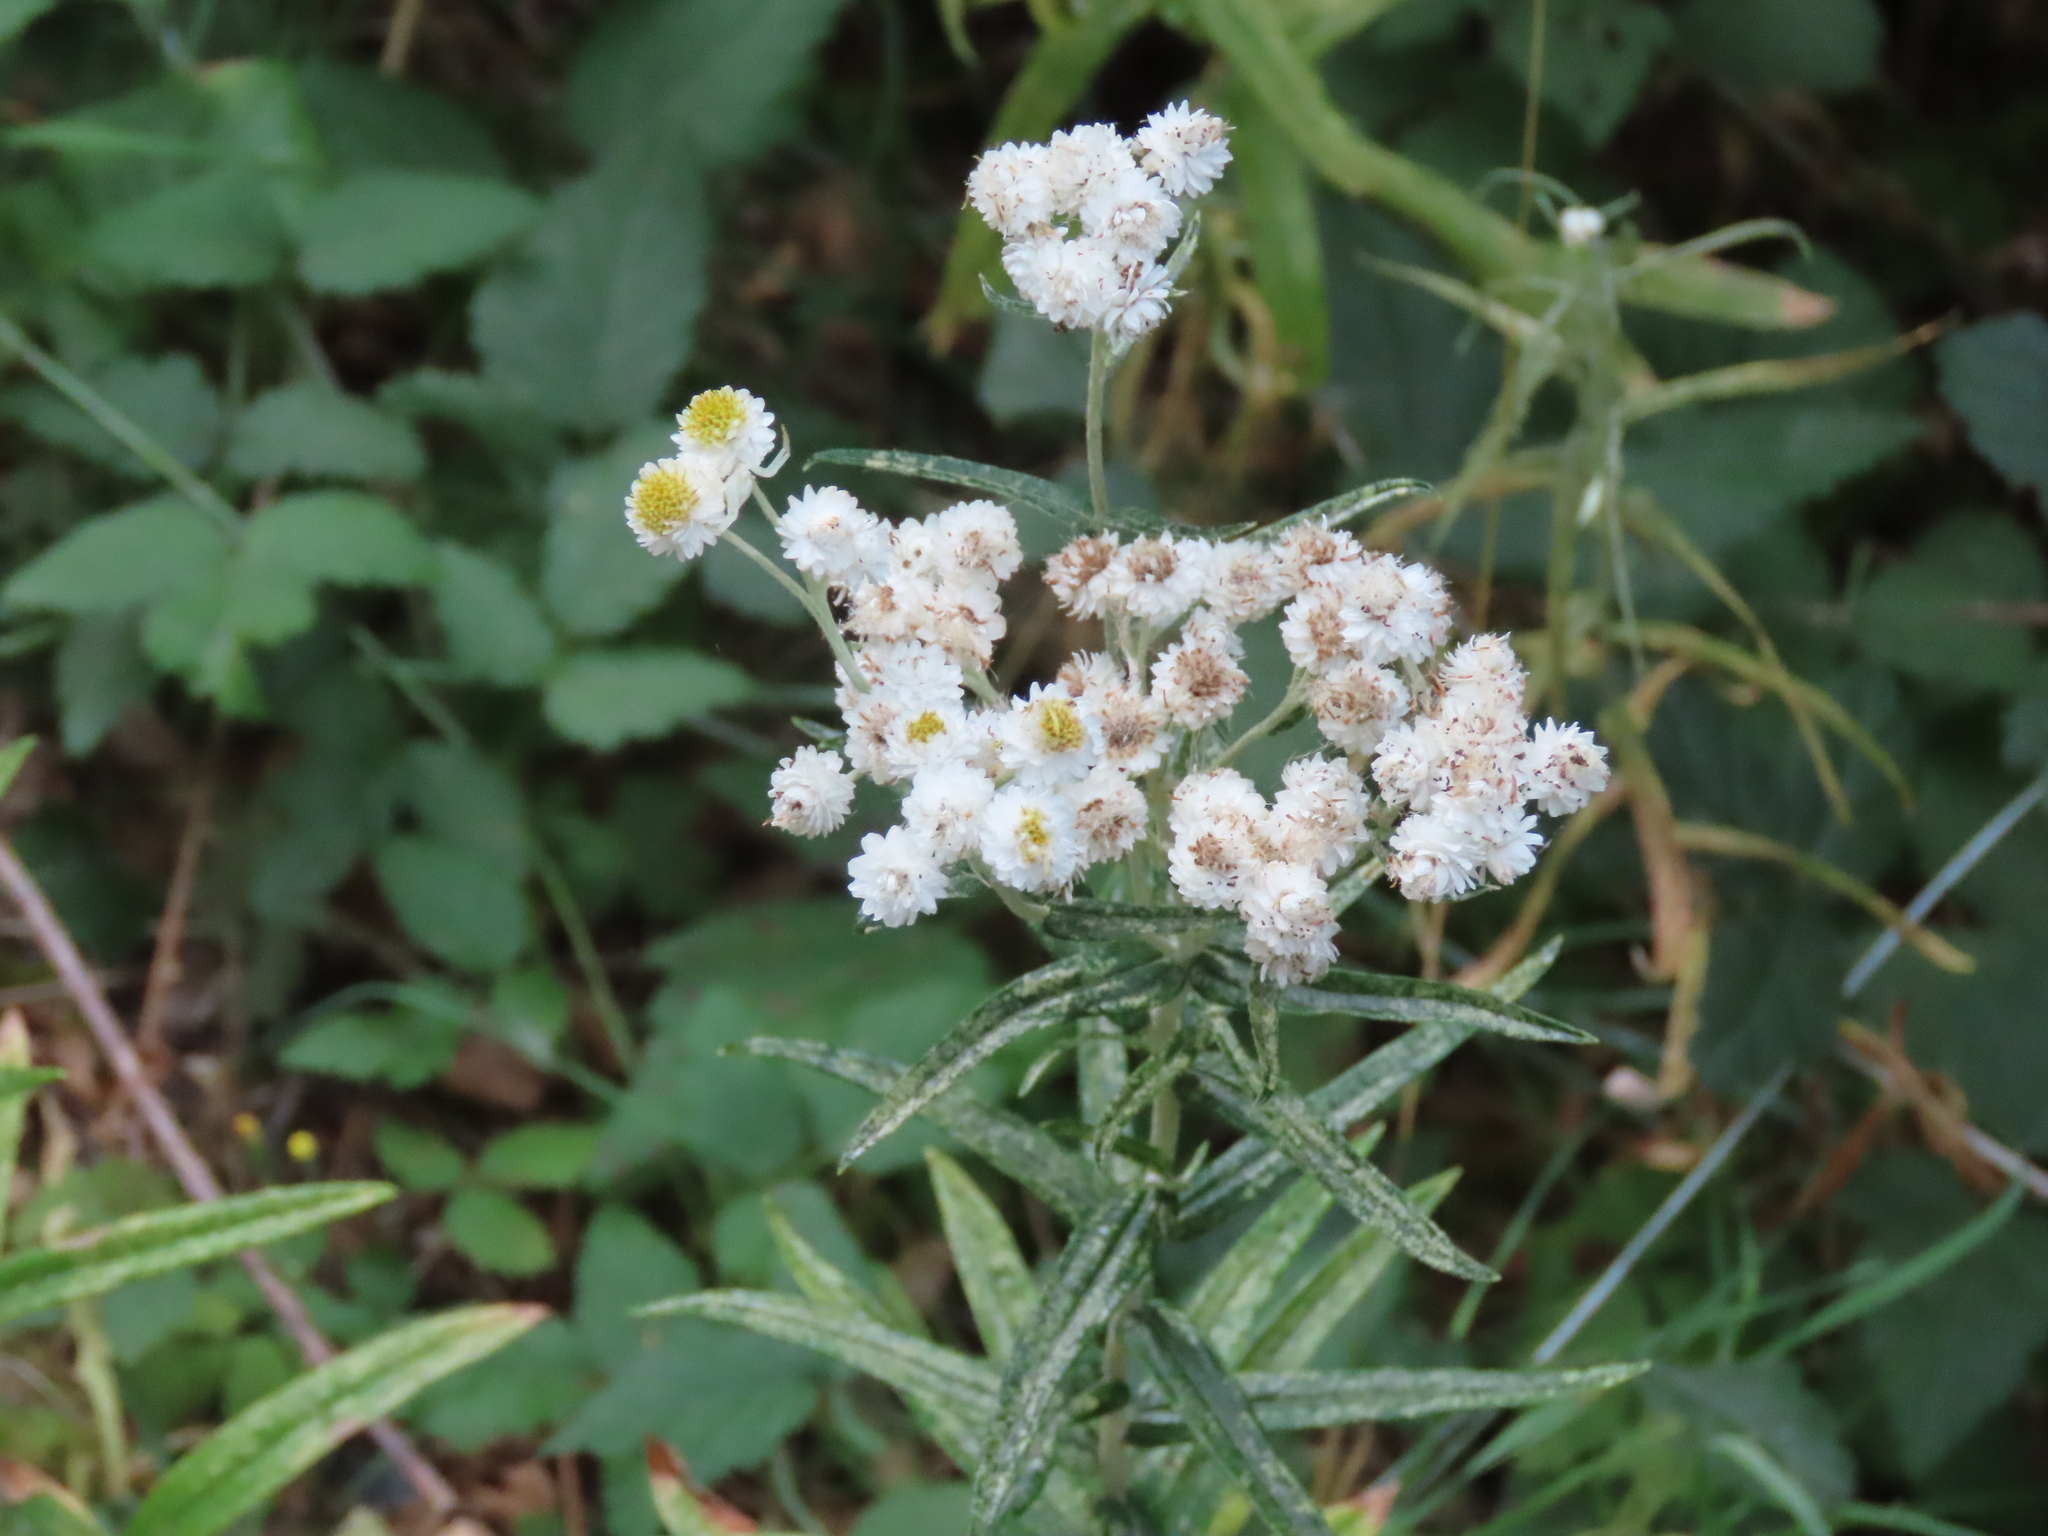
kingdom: Plantae
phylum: Tracheophyta
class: Magnoliopsida
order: Asterales
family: Asteraceae
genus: Anaphalis
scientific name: Anaphalis margaritacea
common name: Pearly everlasting
